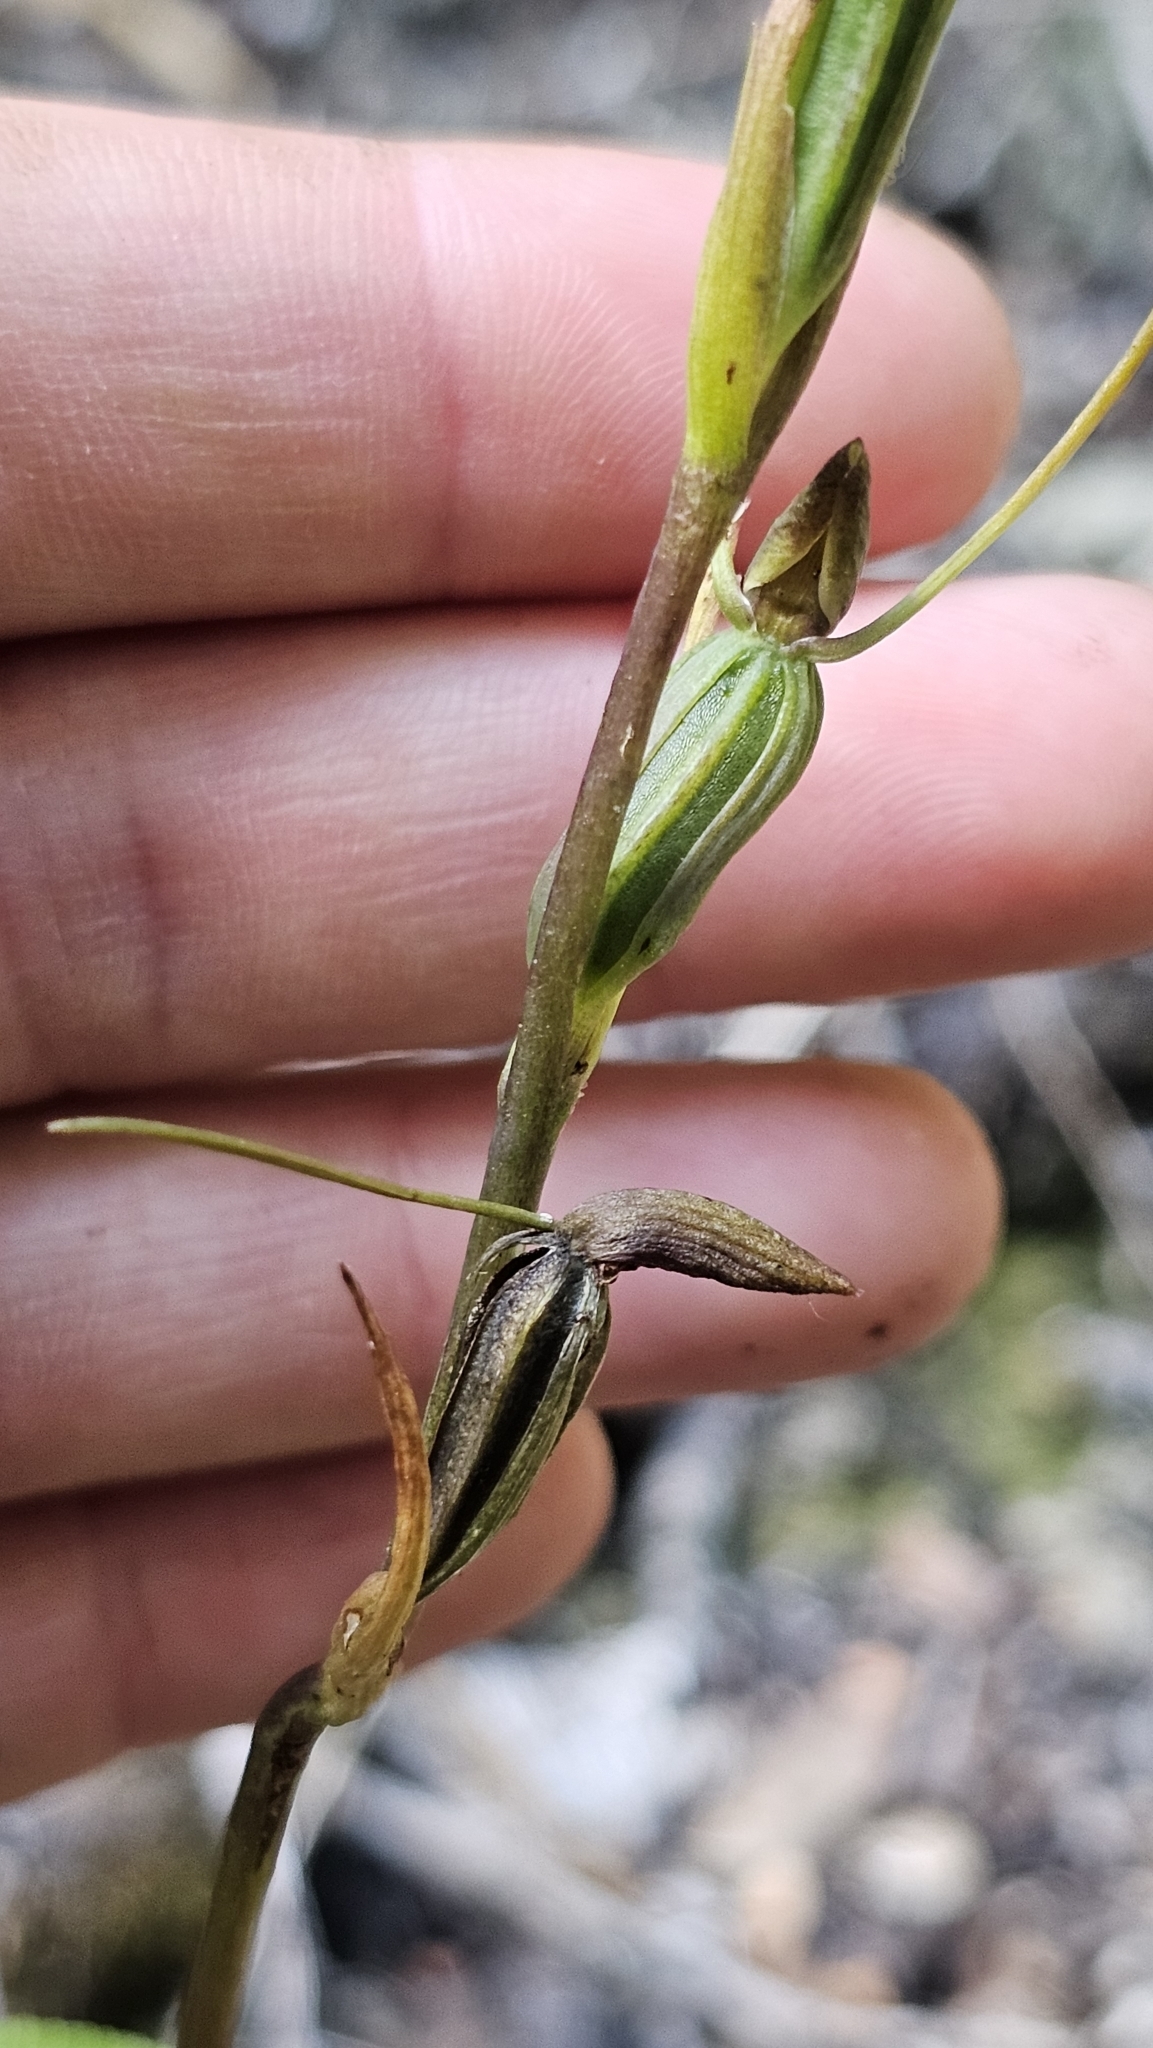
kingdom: Plantae
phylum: Tracheophyta
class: Liliopsida
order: Asparagales
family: Orchidaceae
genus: Orthoceras
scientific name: Orthoceras novae-zeelandiae
